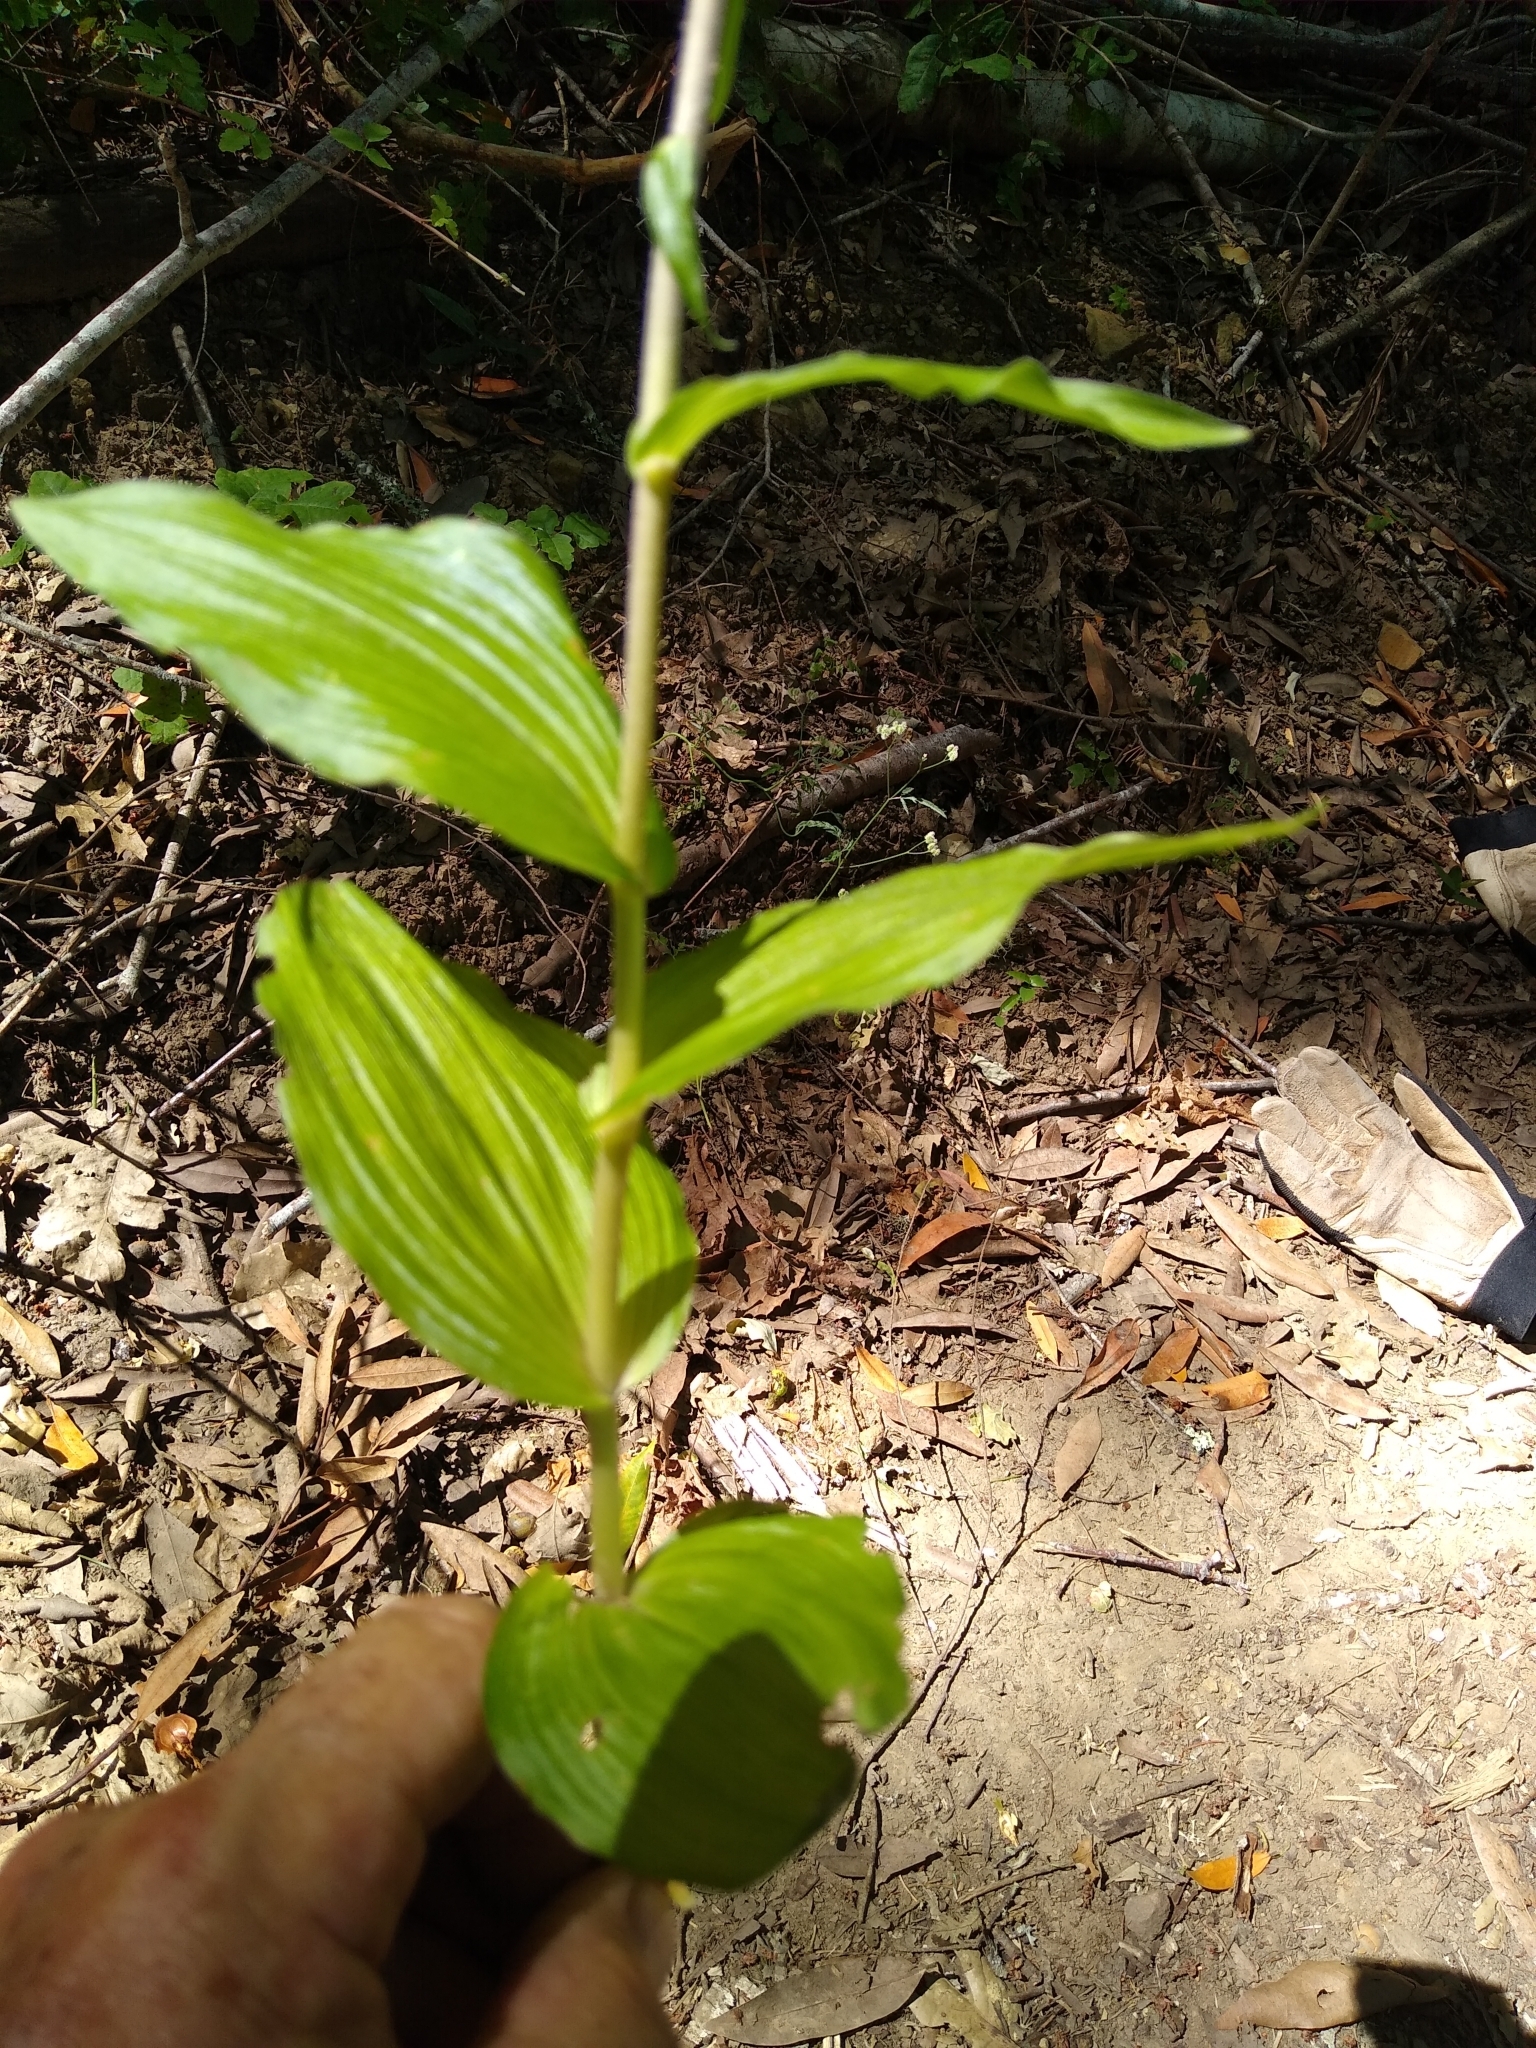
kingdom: Plantae
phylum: Tracheophyta
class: Liliopsida
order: Asparagales
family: Orchidaceae
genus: Epipactis
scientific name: Epipactis helleborine
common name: Broad-leaved helleborine
